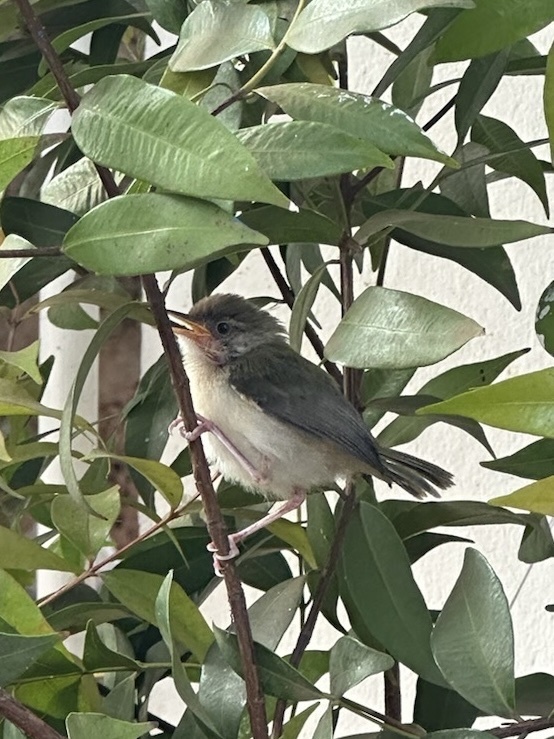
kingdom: Animalia
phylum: Chordata
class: Aves
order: Passeriformes
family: Dicaeidae
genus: Dicaeum
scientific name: Dicaeum erythrorhynchos
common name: Pale-billed flowerpecker
